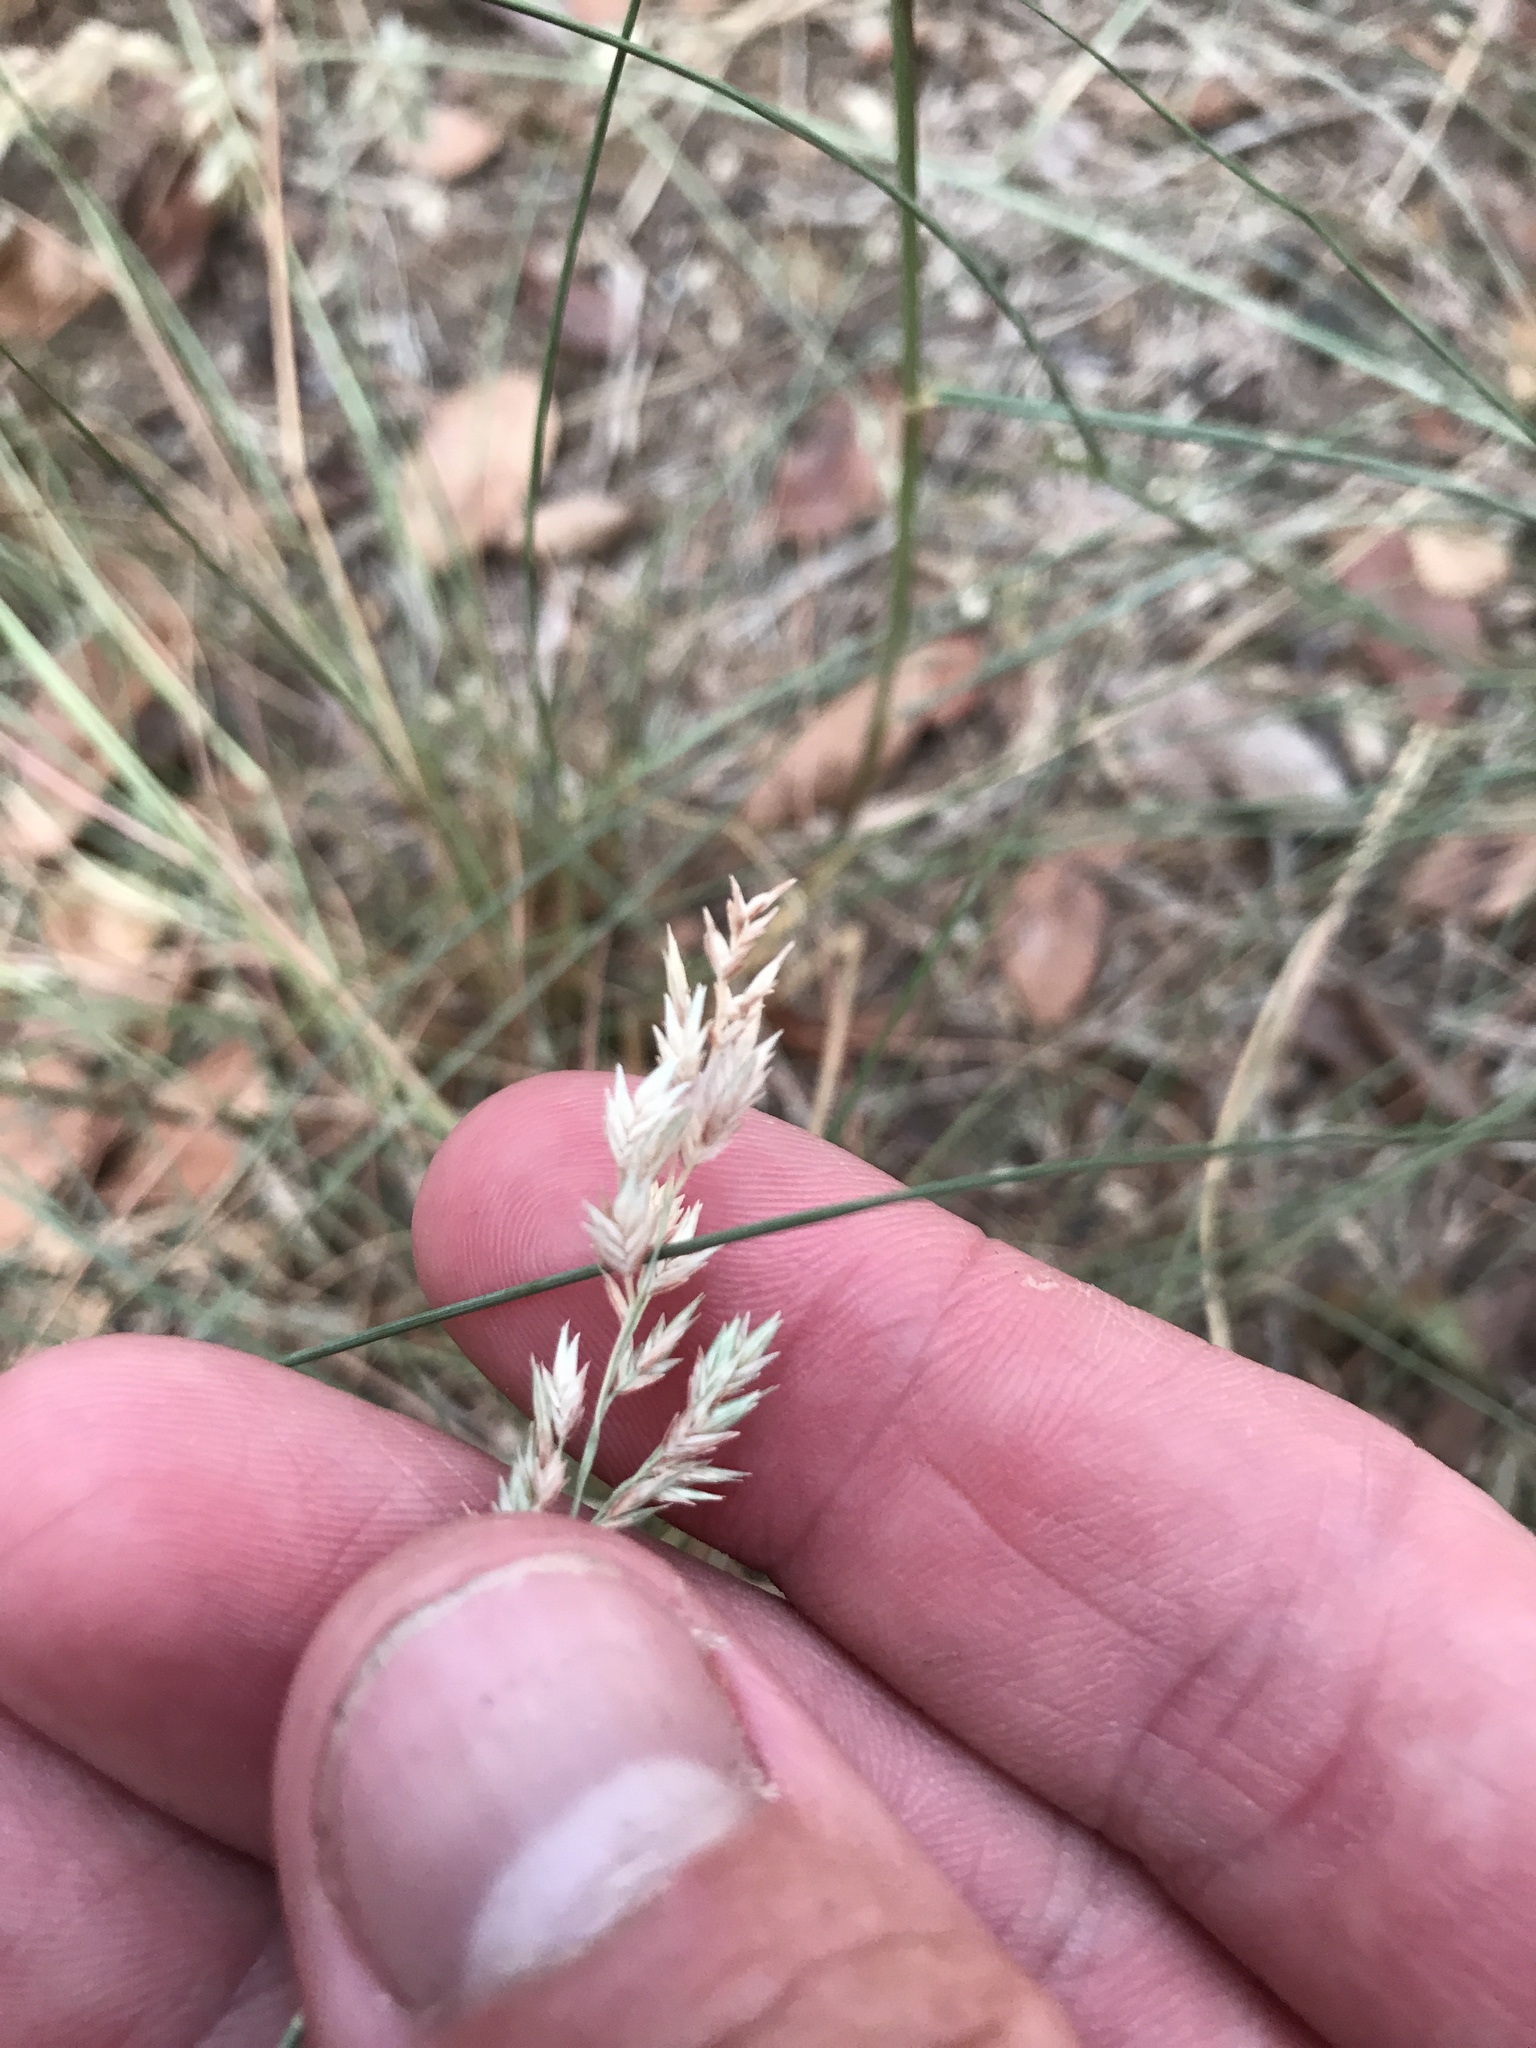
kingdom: Plantae
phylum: Tracheophyta
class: Liliopsida
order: Poales
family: Poaceae
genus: Eragrostis
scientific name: Eragrostis secundiflora
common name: Red love grass
